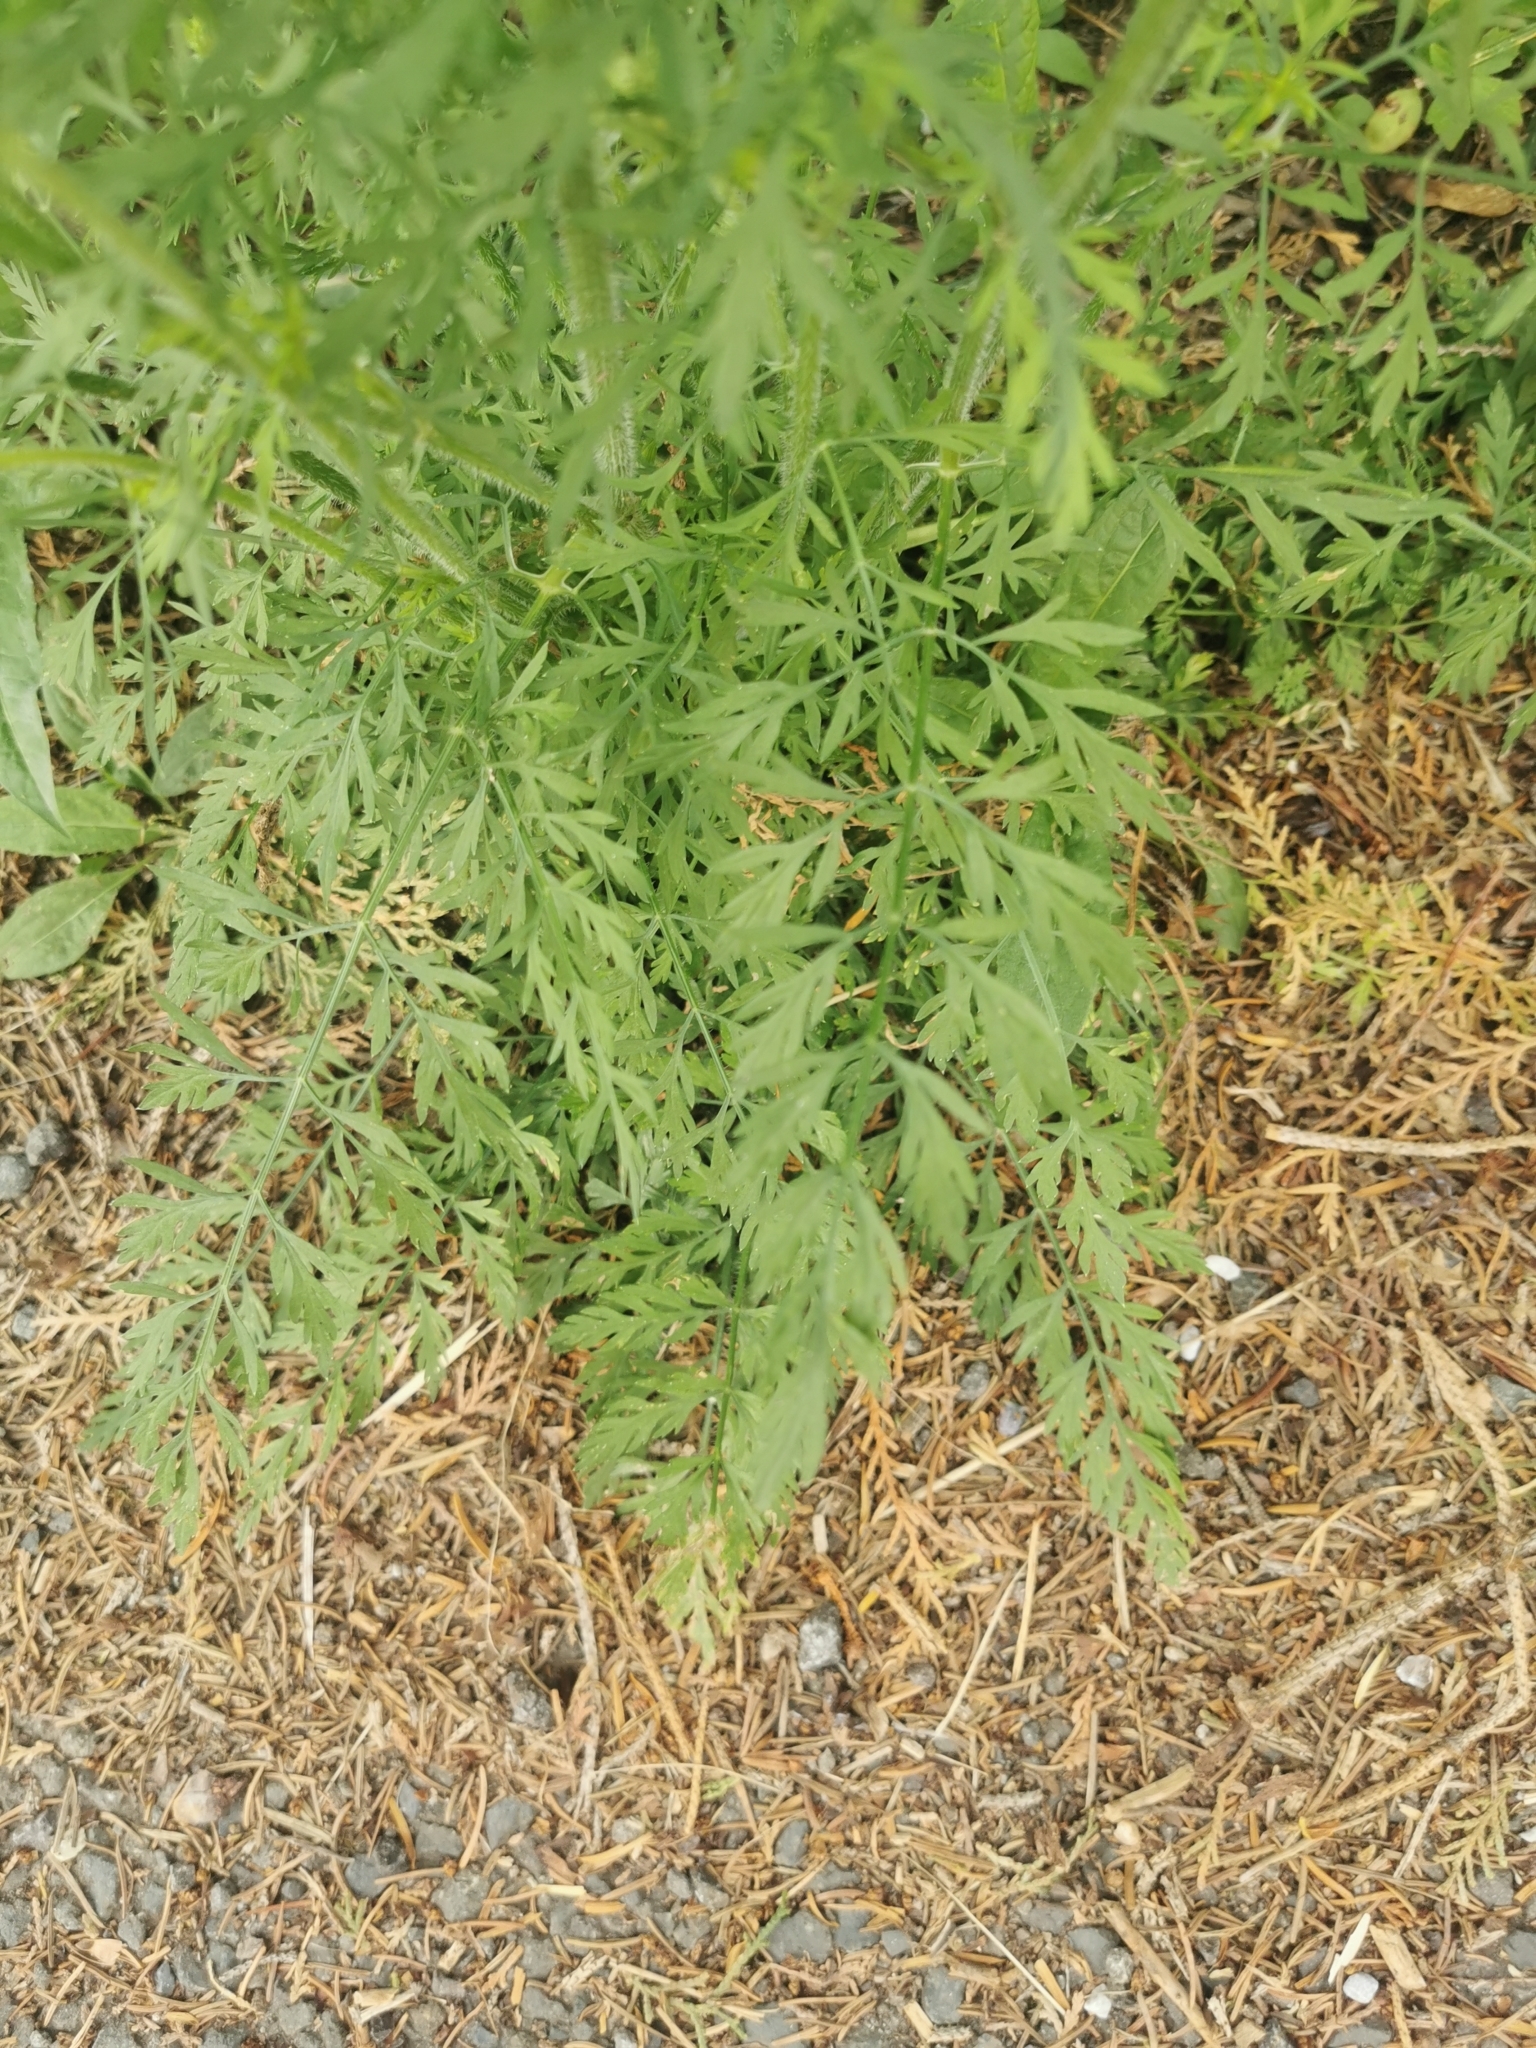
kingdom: Plantae
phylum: Tracheophyta
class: Magnoliopsida
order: Apiales
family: Apiaceae
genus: Daucus
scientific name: Daucus carota
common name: Wild carrot
